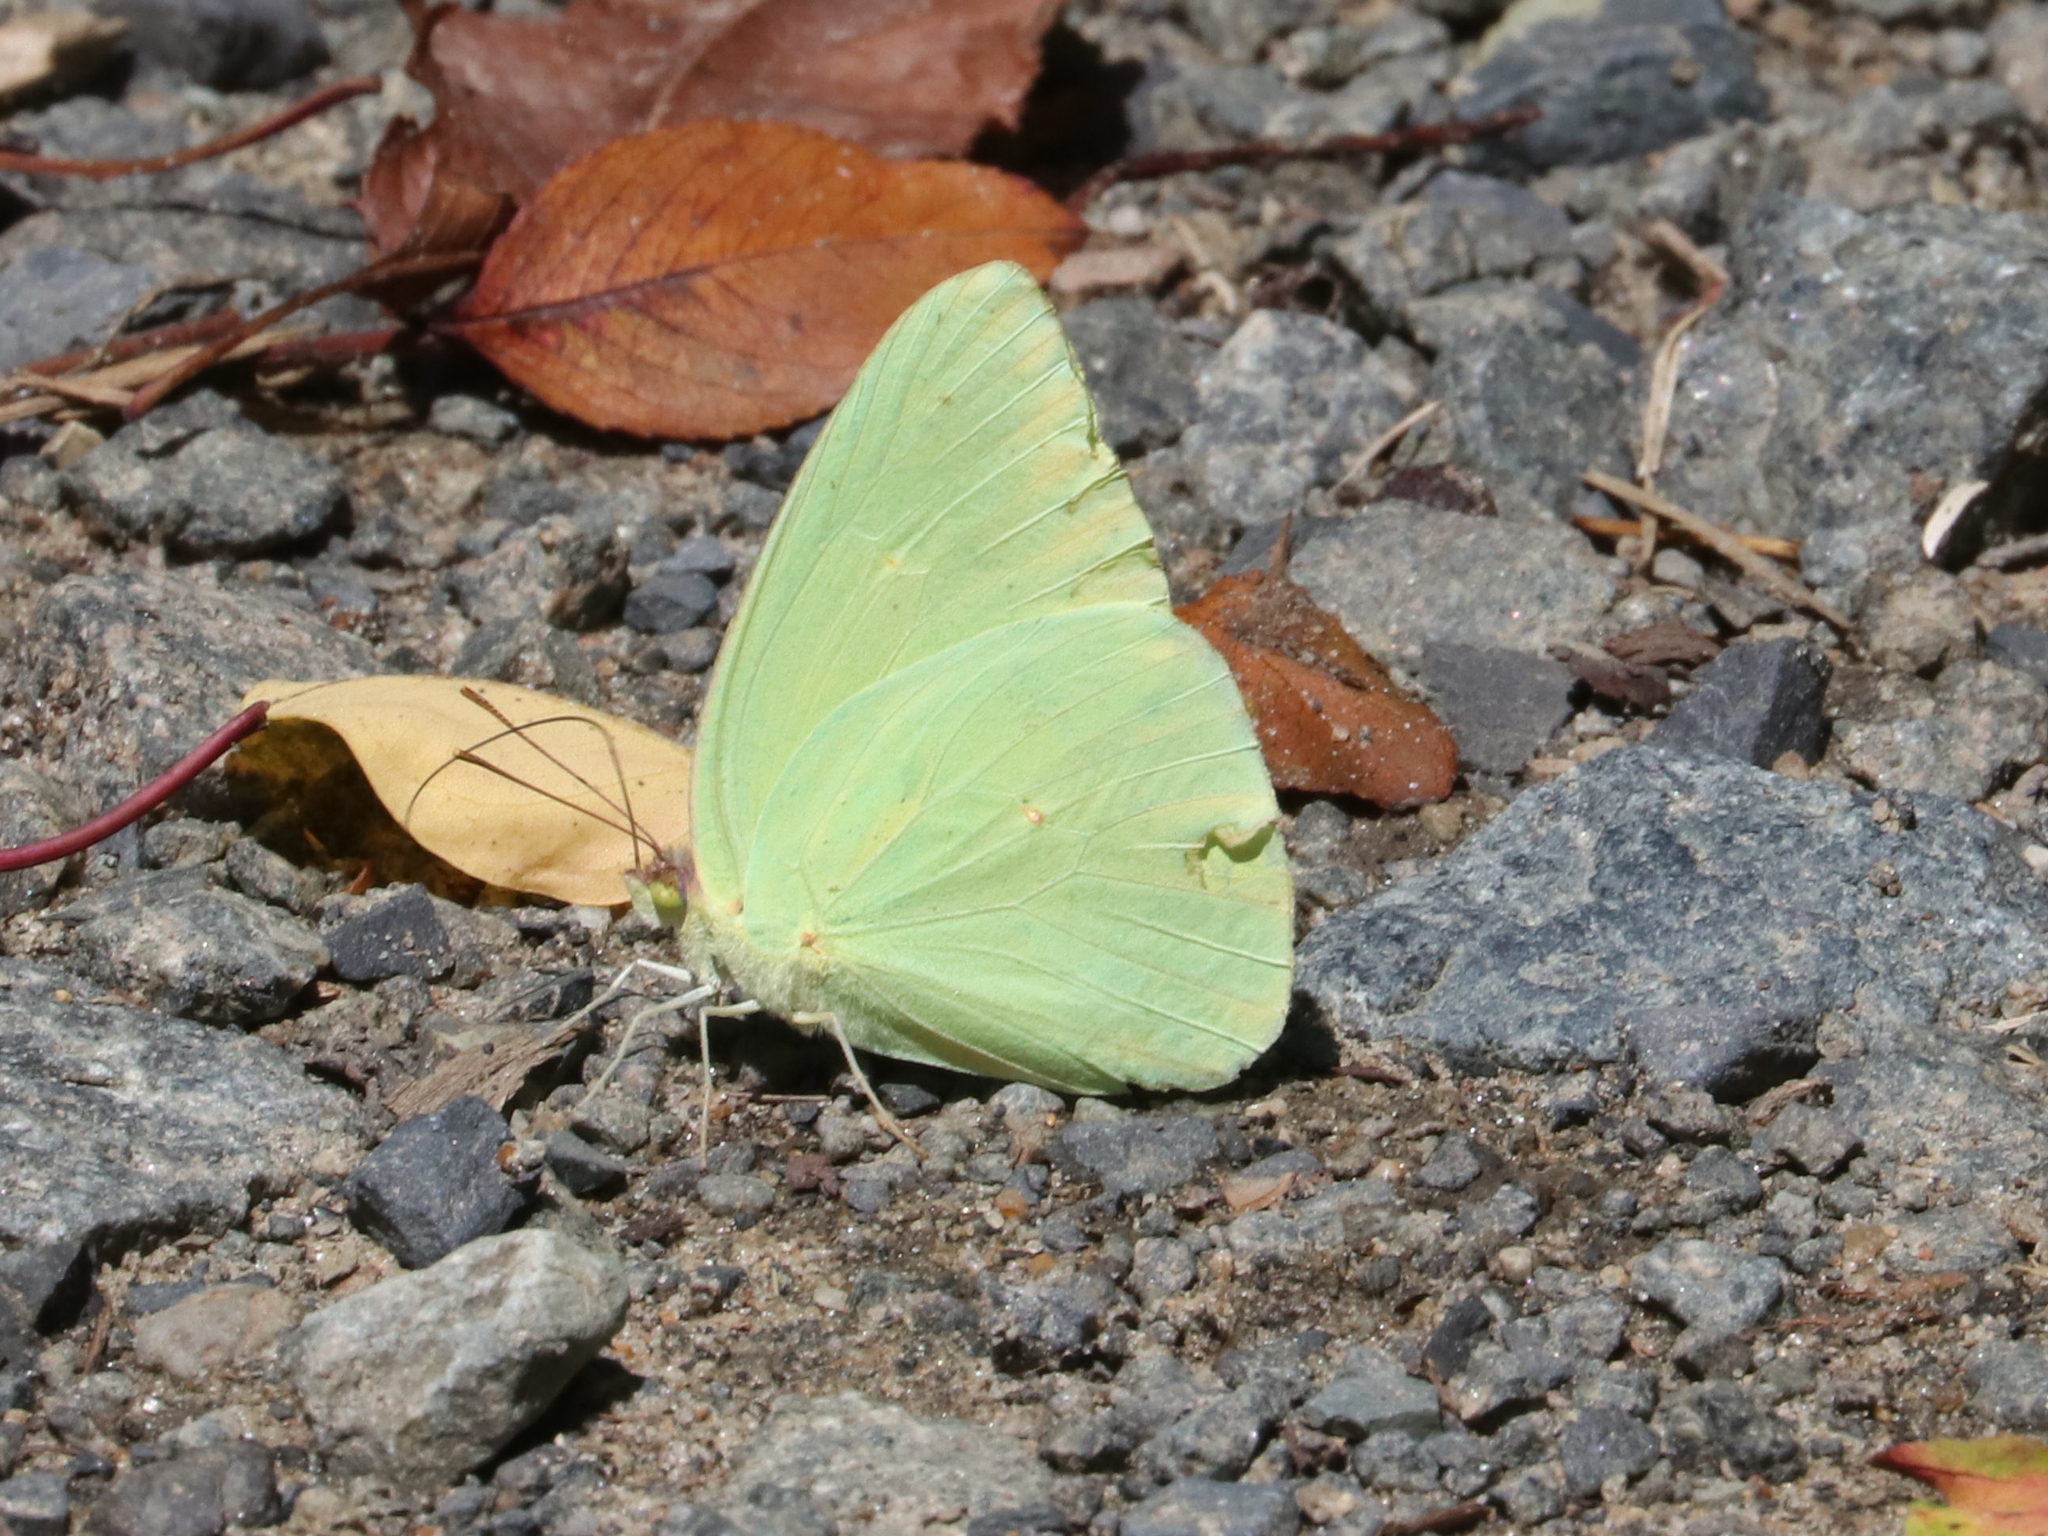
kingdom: Animalia
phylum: Arthropoda
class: Insecta
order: Lepidoptera
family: Pieridae
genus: Phoebis
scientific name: Phoebis sennae
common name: Cloudless sulphur
